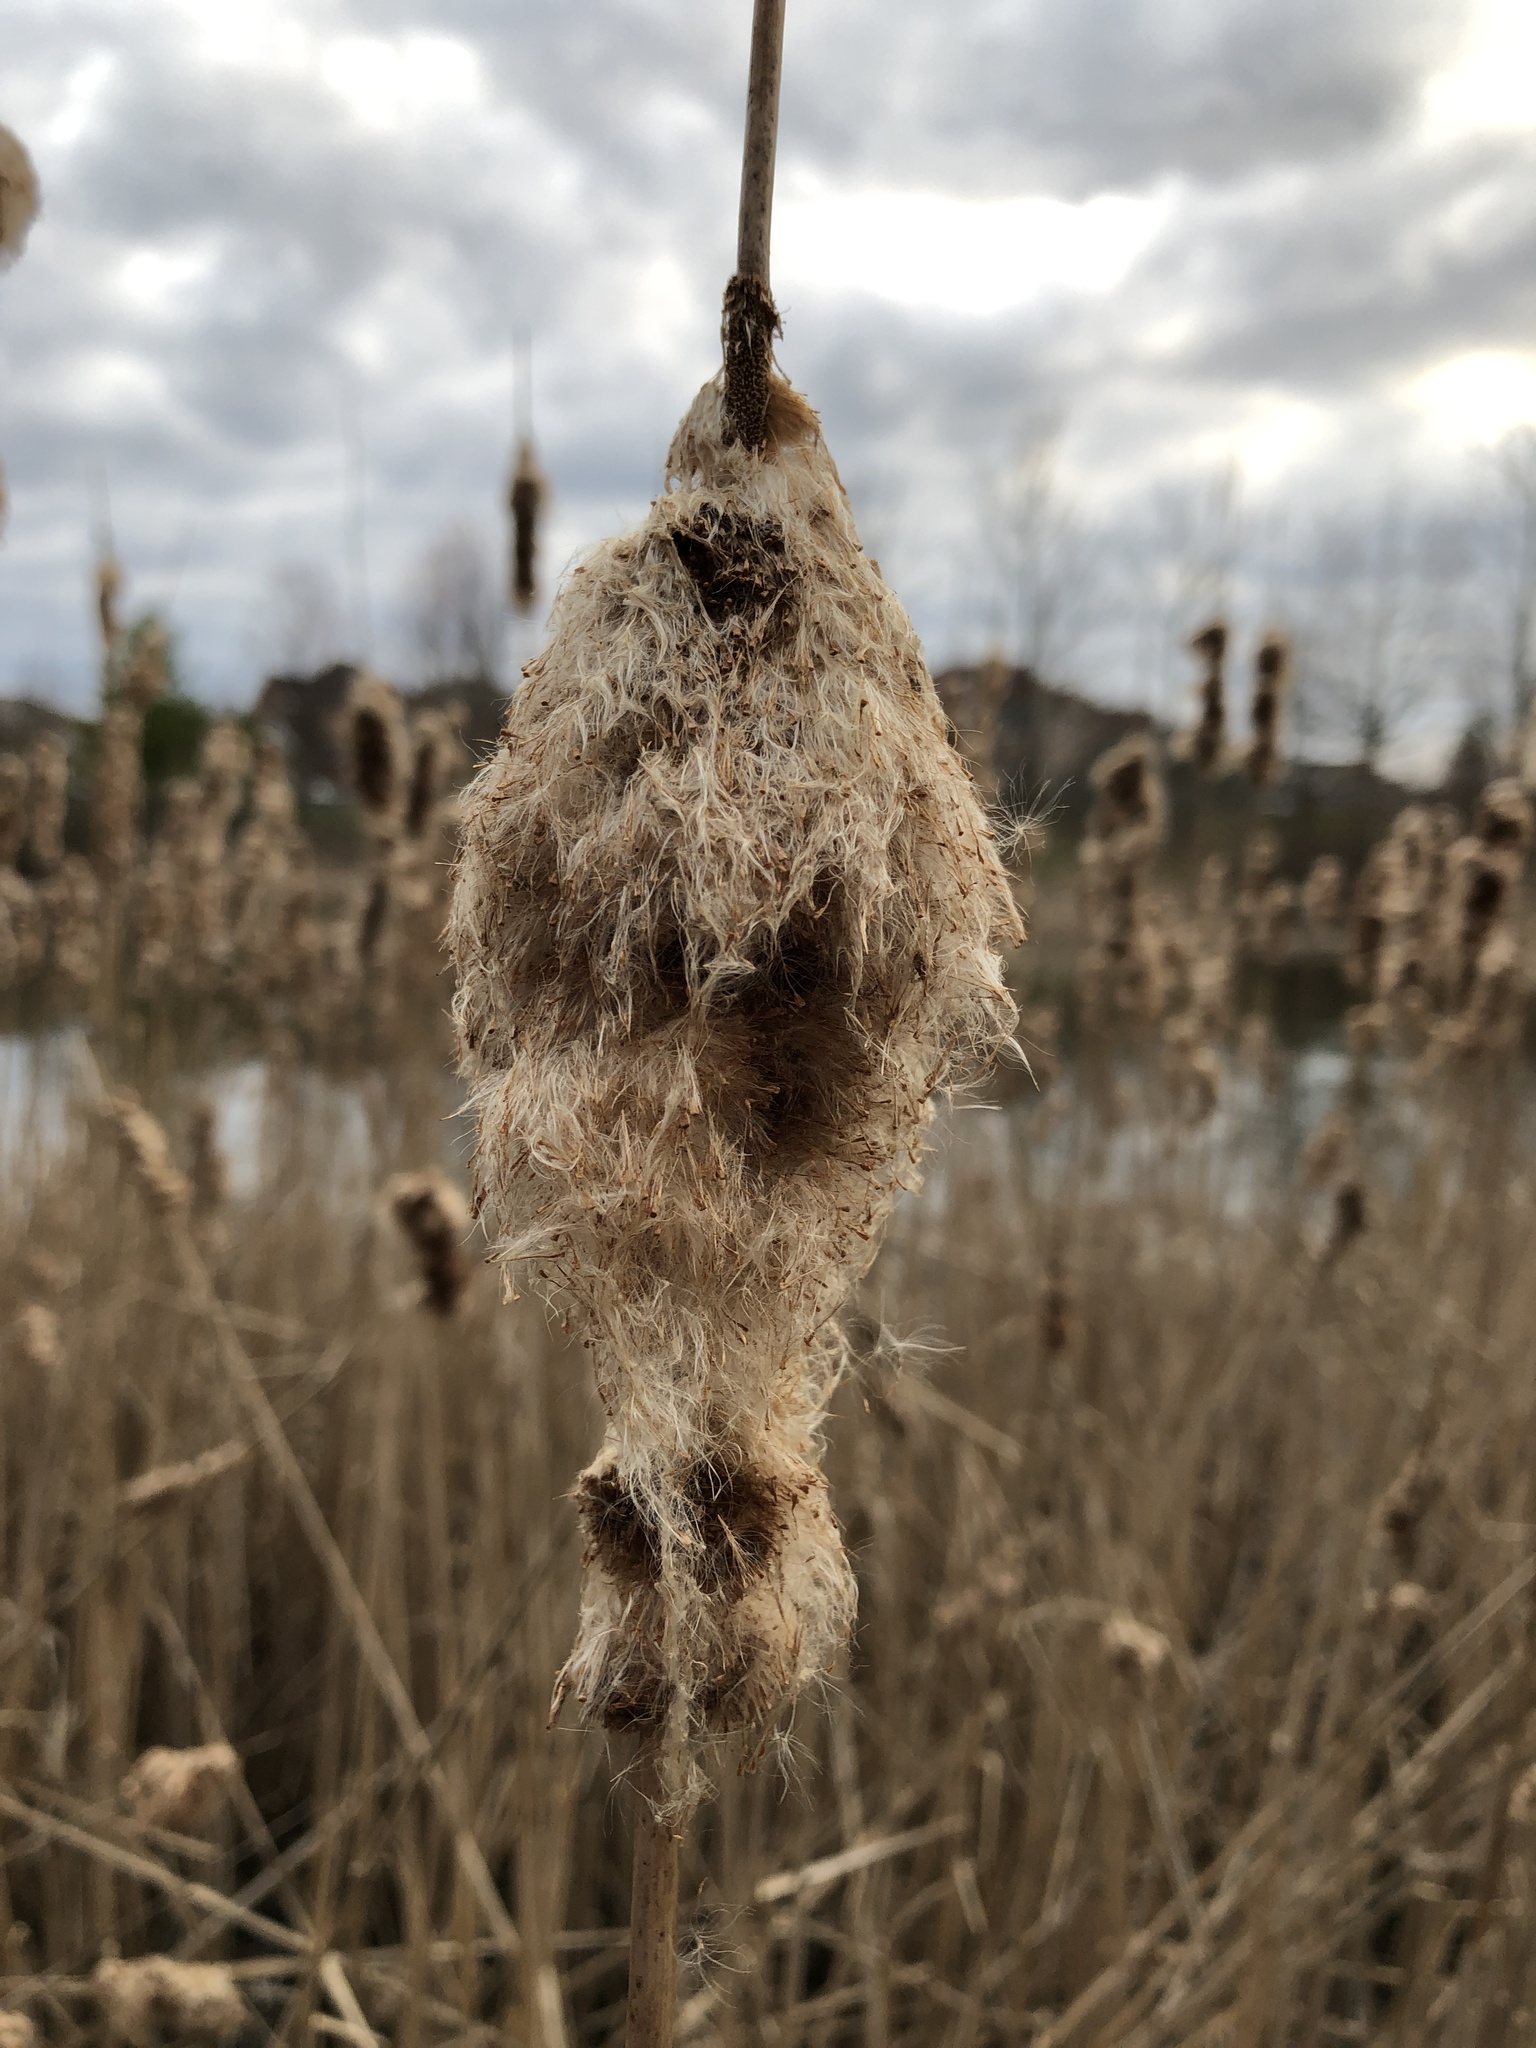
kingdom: Plantae
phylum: Tracheophyta
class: Liliopsida
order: Poales
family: Typhaceae
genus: Typha
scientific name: Typha latifolia
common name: Broadleaf cattail
